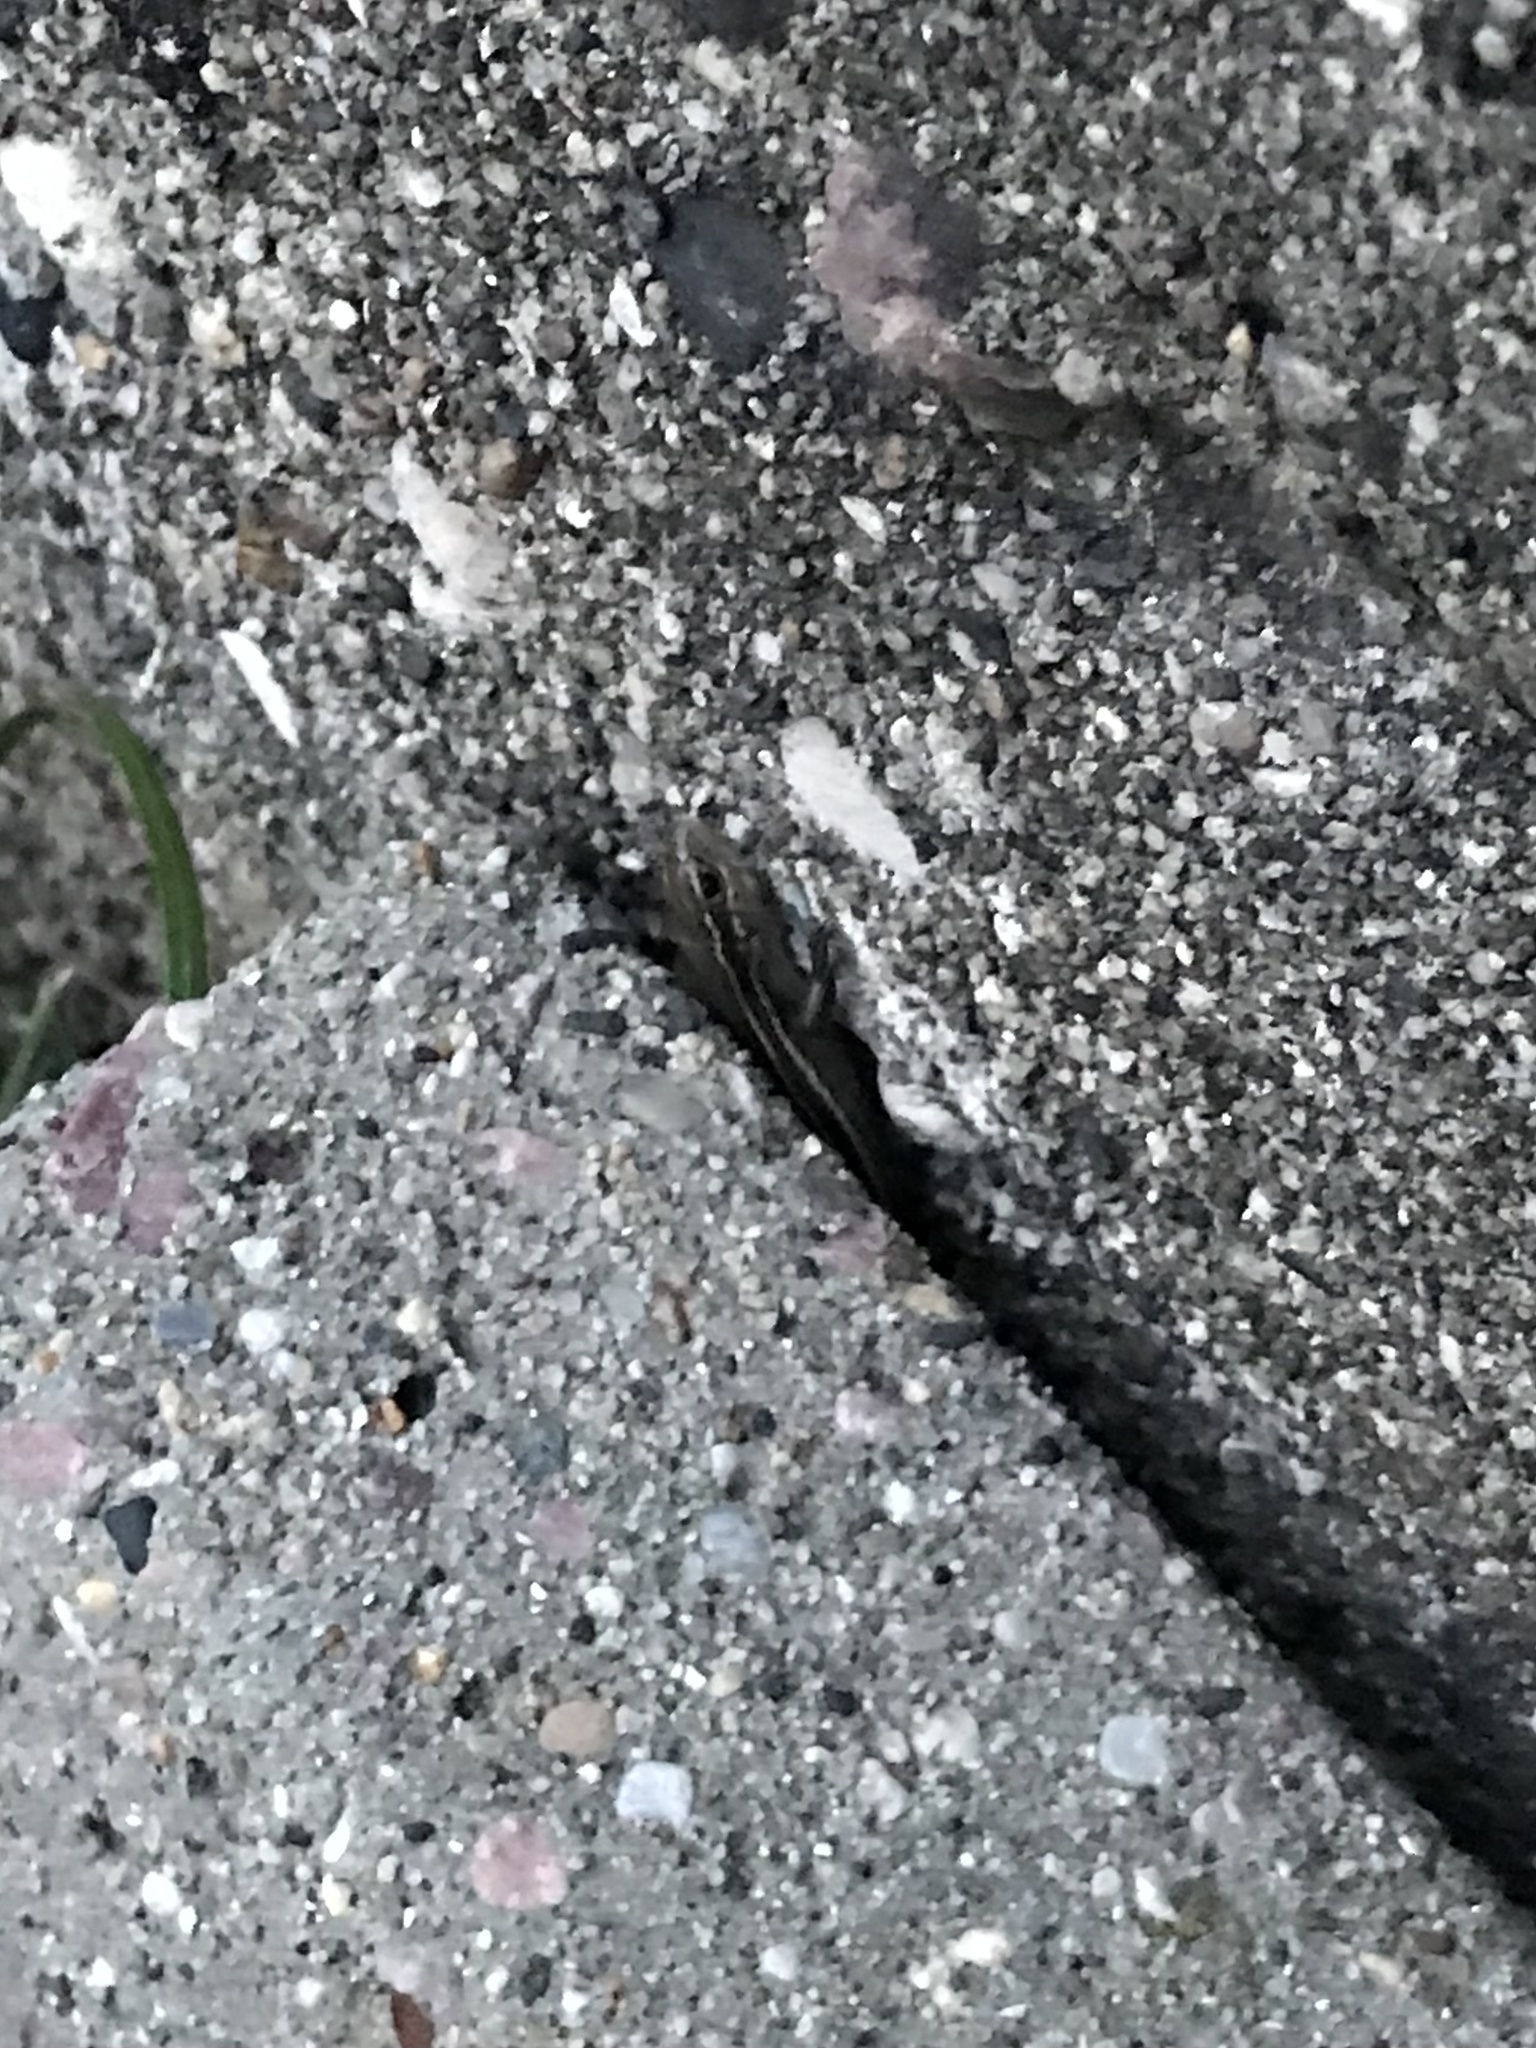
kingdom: Animalia
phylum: Chordata
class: Squamata
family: Scincidae
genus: Plestiodon
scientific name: Plestiodon septentrionalis
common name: Northern prairie skink
